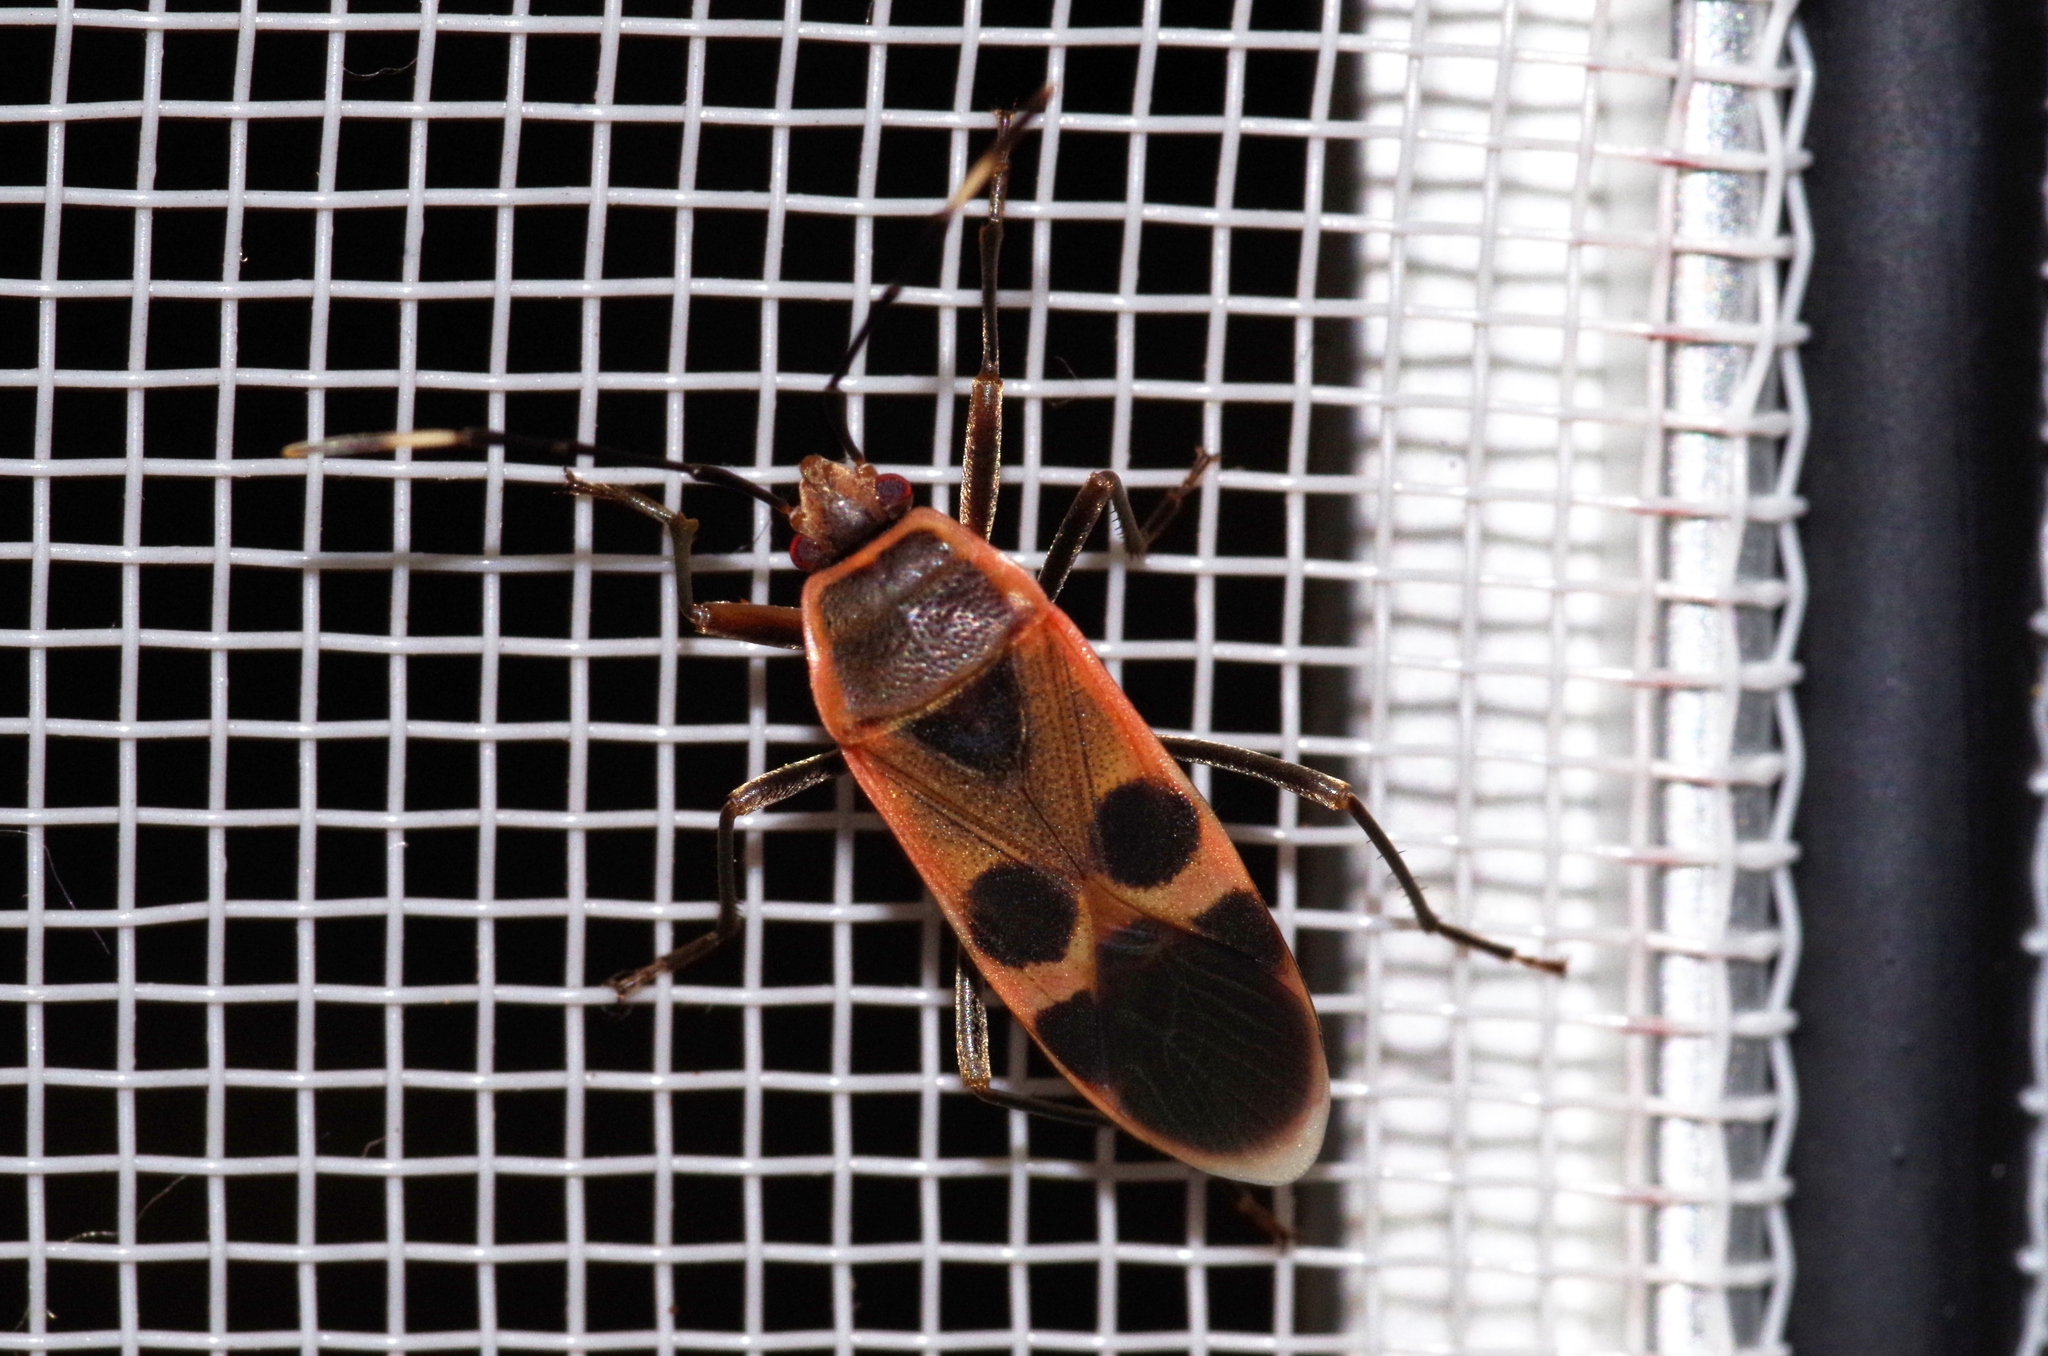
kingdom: Animalia
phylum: Arthropoda
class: Insecta
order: Hemiptera
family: Largidae
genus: Physopelta
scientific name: Physopelta gutta
